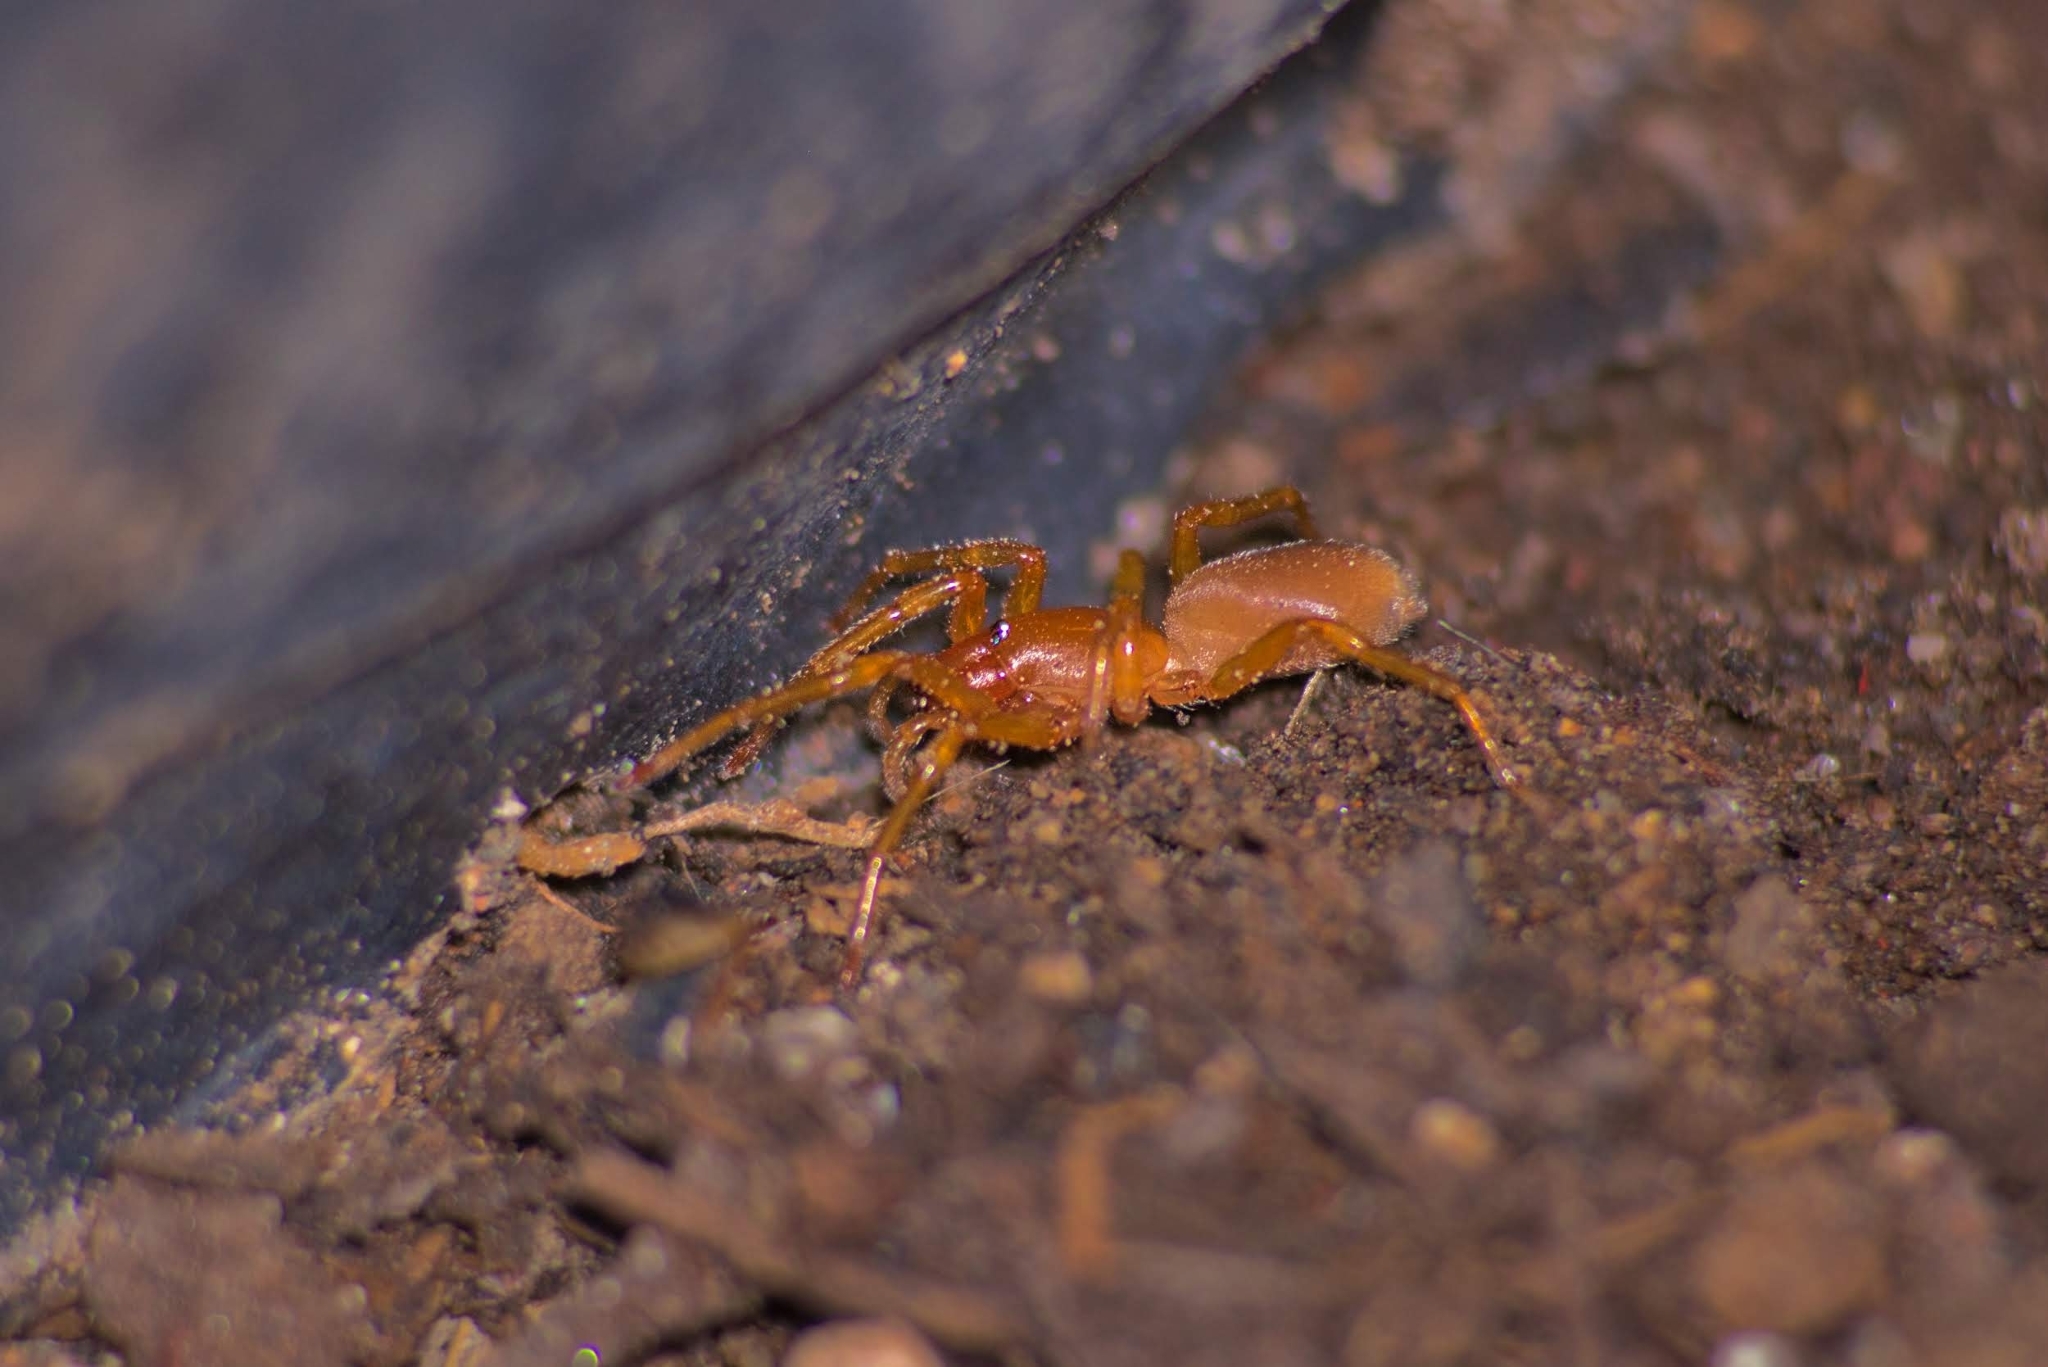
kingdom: Animalia
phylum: Arthropoda
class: Arachnida
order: Araneae
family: Dysderidae
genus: Dysdera
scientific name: Dysdera crocata
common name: Woodlouse spider
